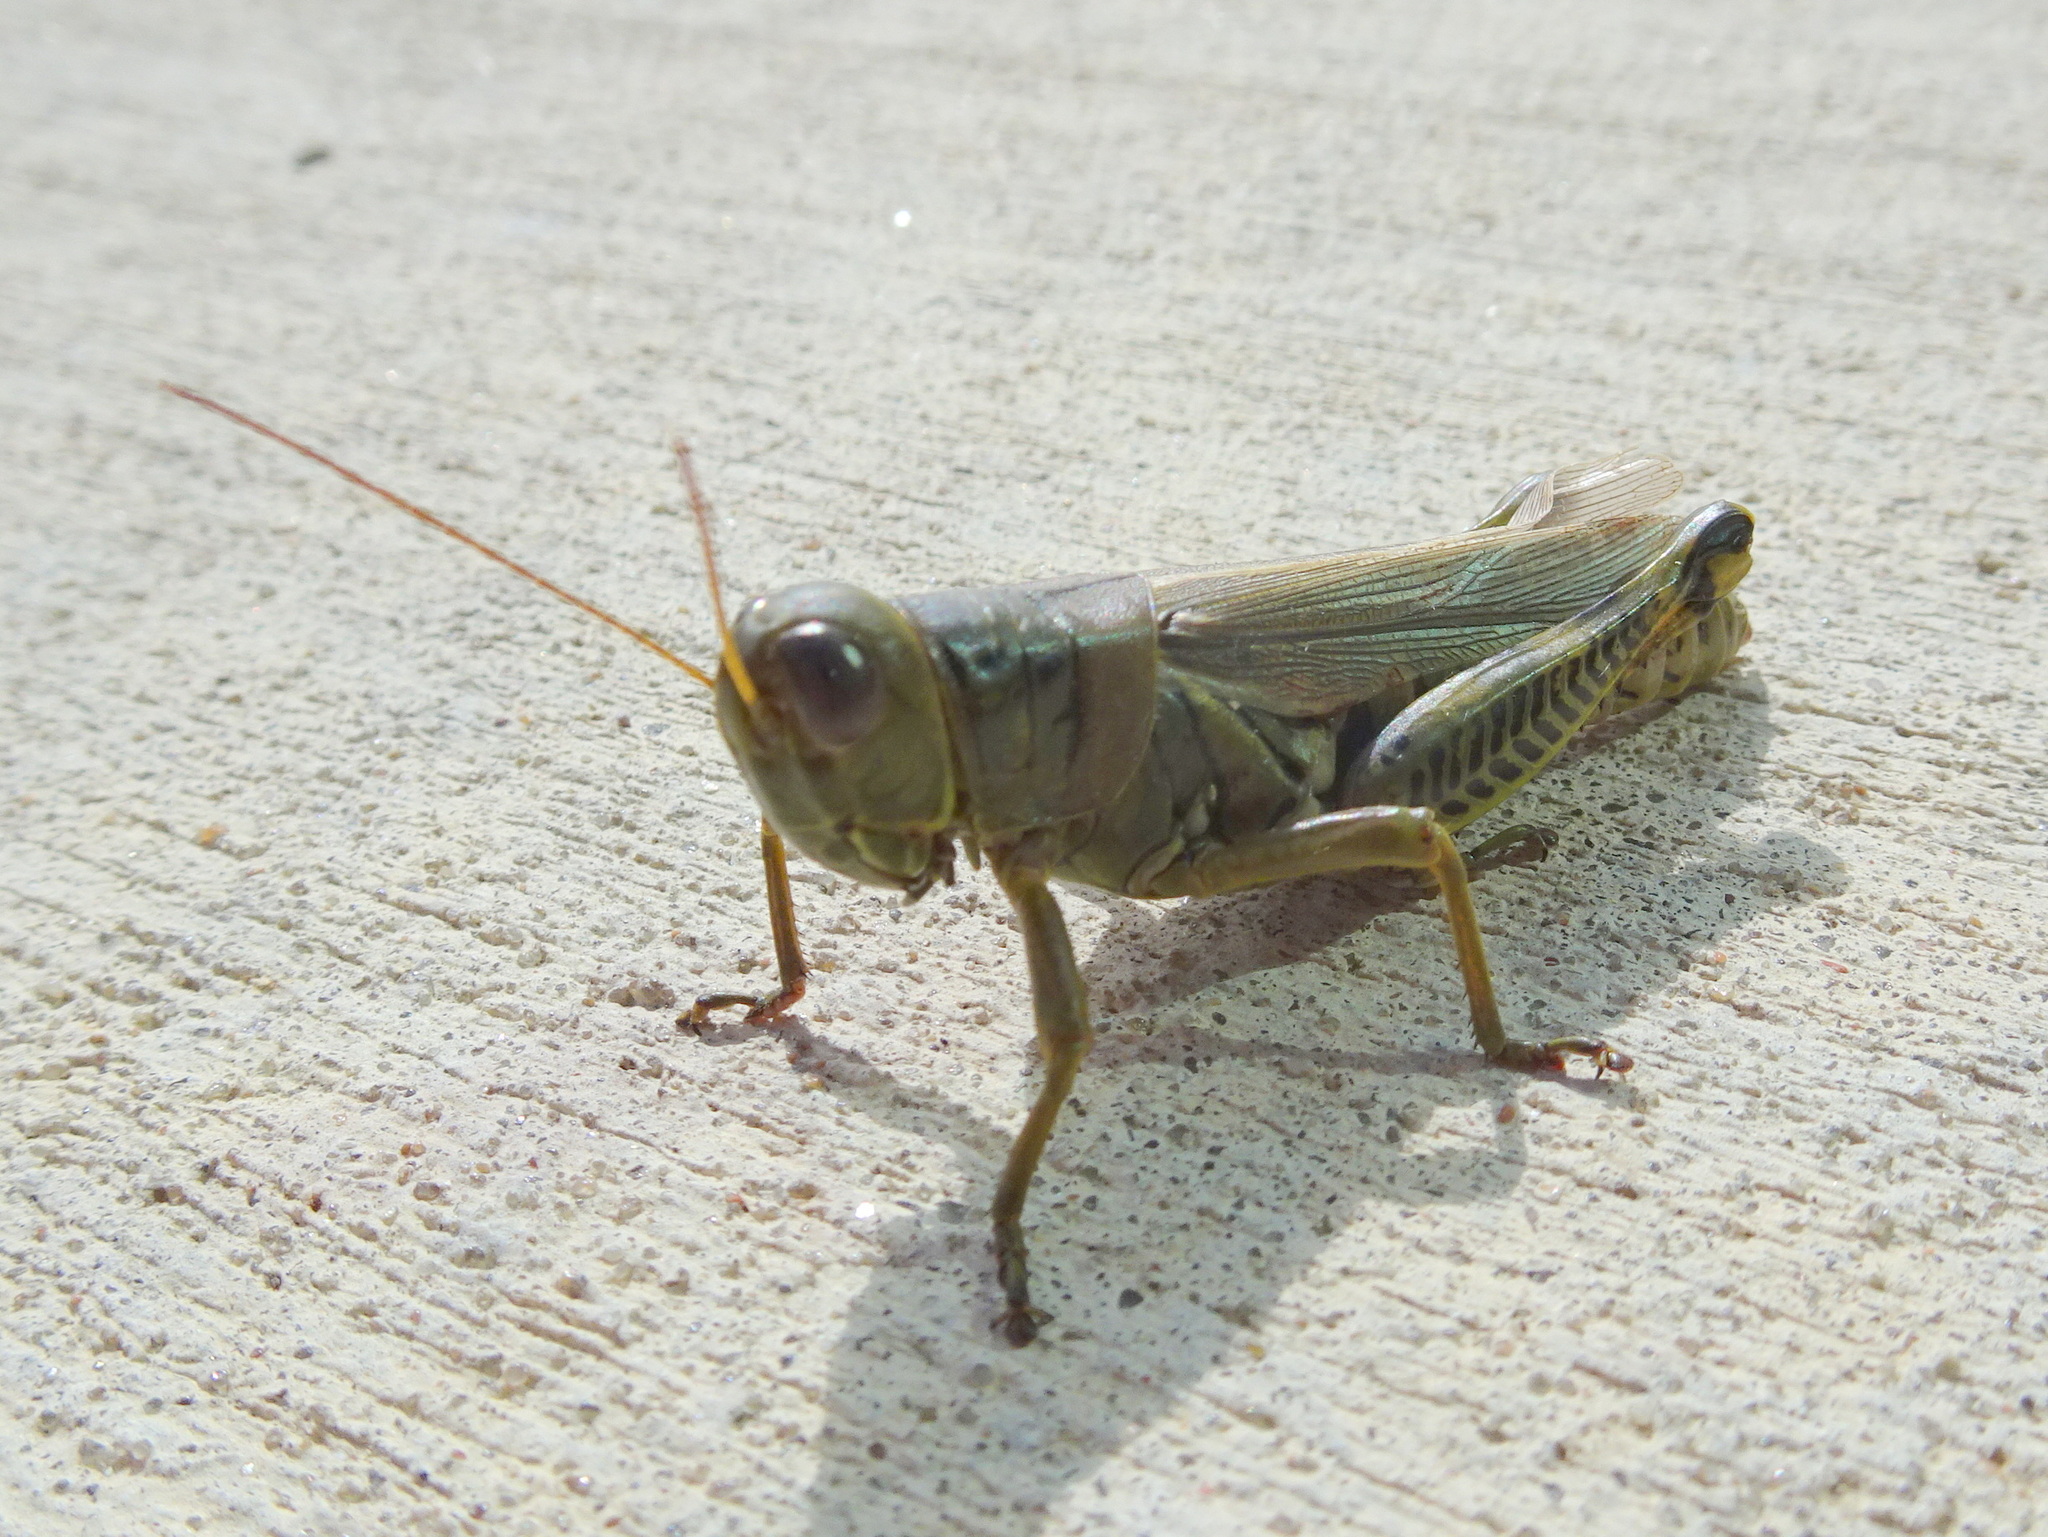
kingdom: Animalia
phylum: Arthropoda
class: Insecta
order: Orthoptera
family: Acrididae
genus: Melanoplus
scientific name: Melanoplus differentialis
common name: Differential grasshopper
